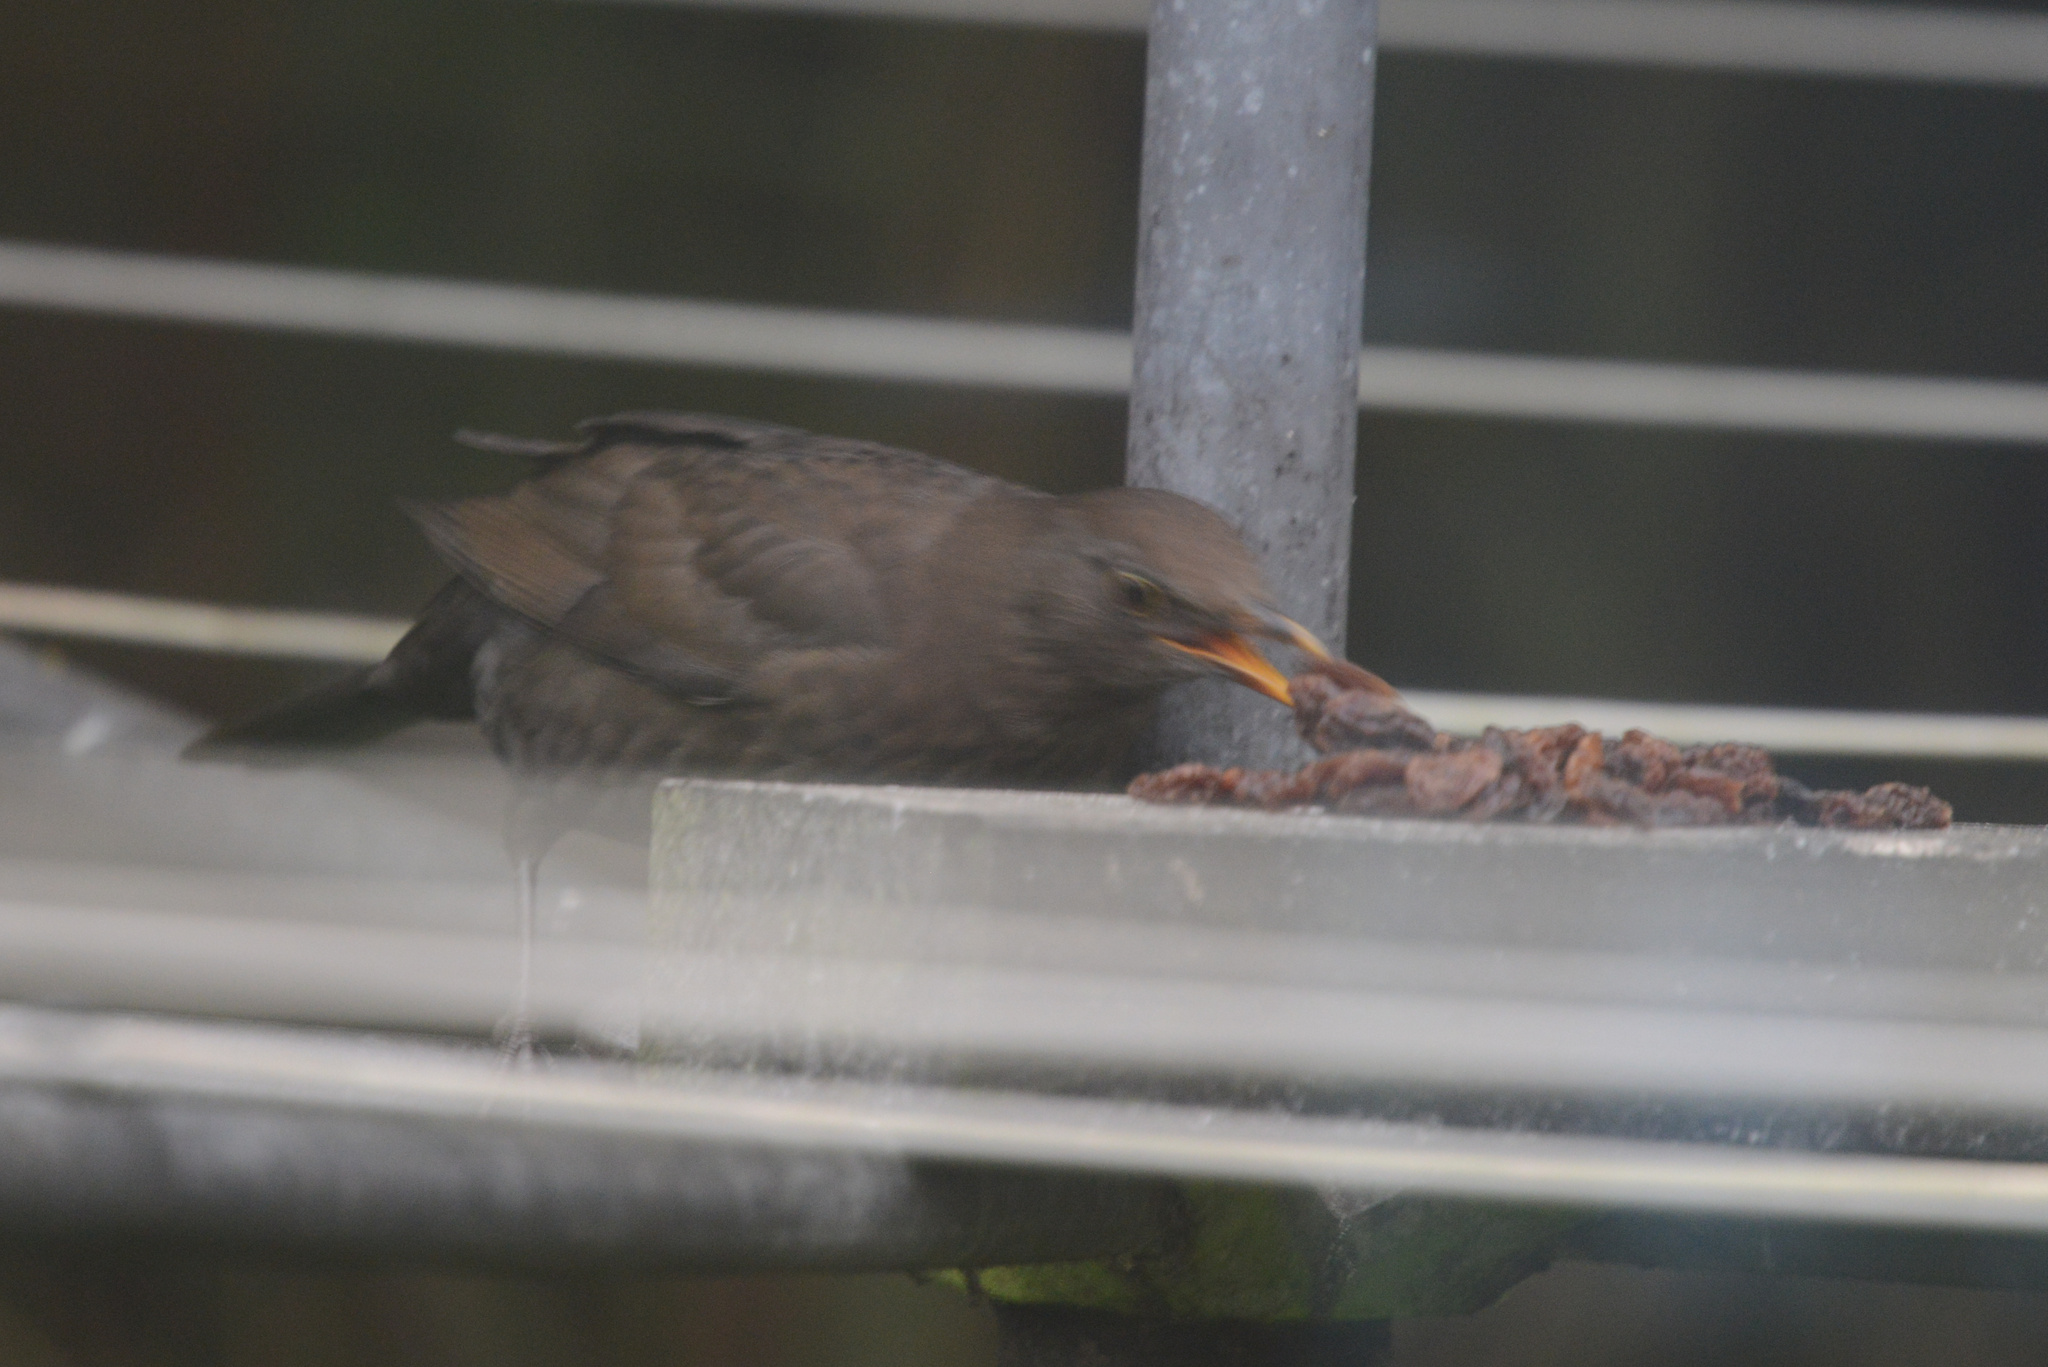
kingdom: Animalia
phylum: Chordata
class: Aves
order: Passeriformes
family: Turdidae
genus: Turdus
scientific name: Turdus merula
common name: Common blackbird
